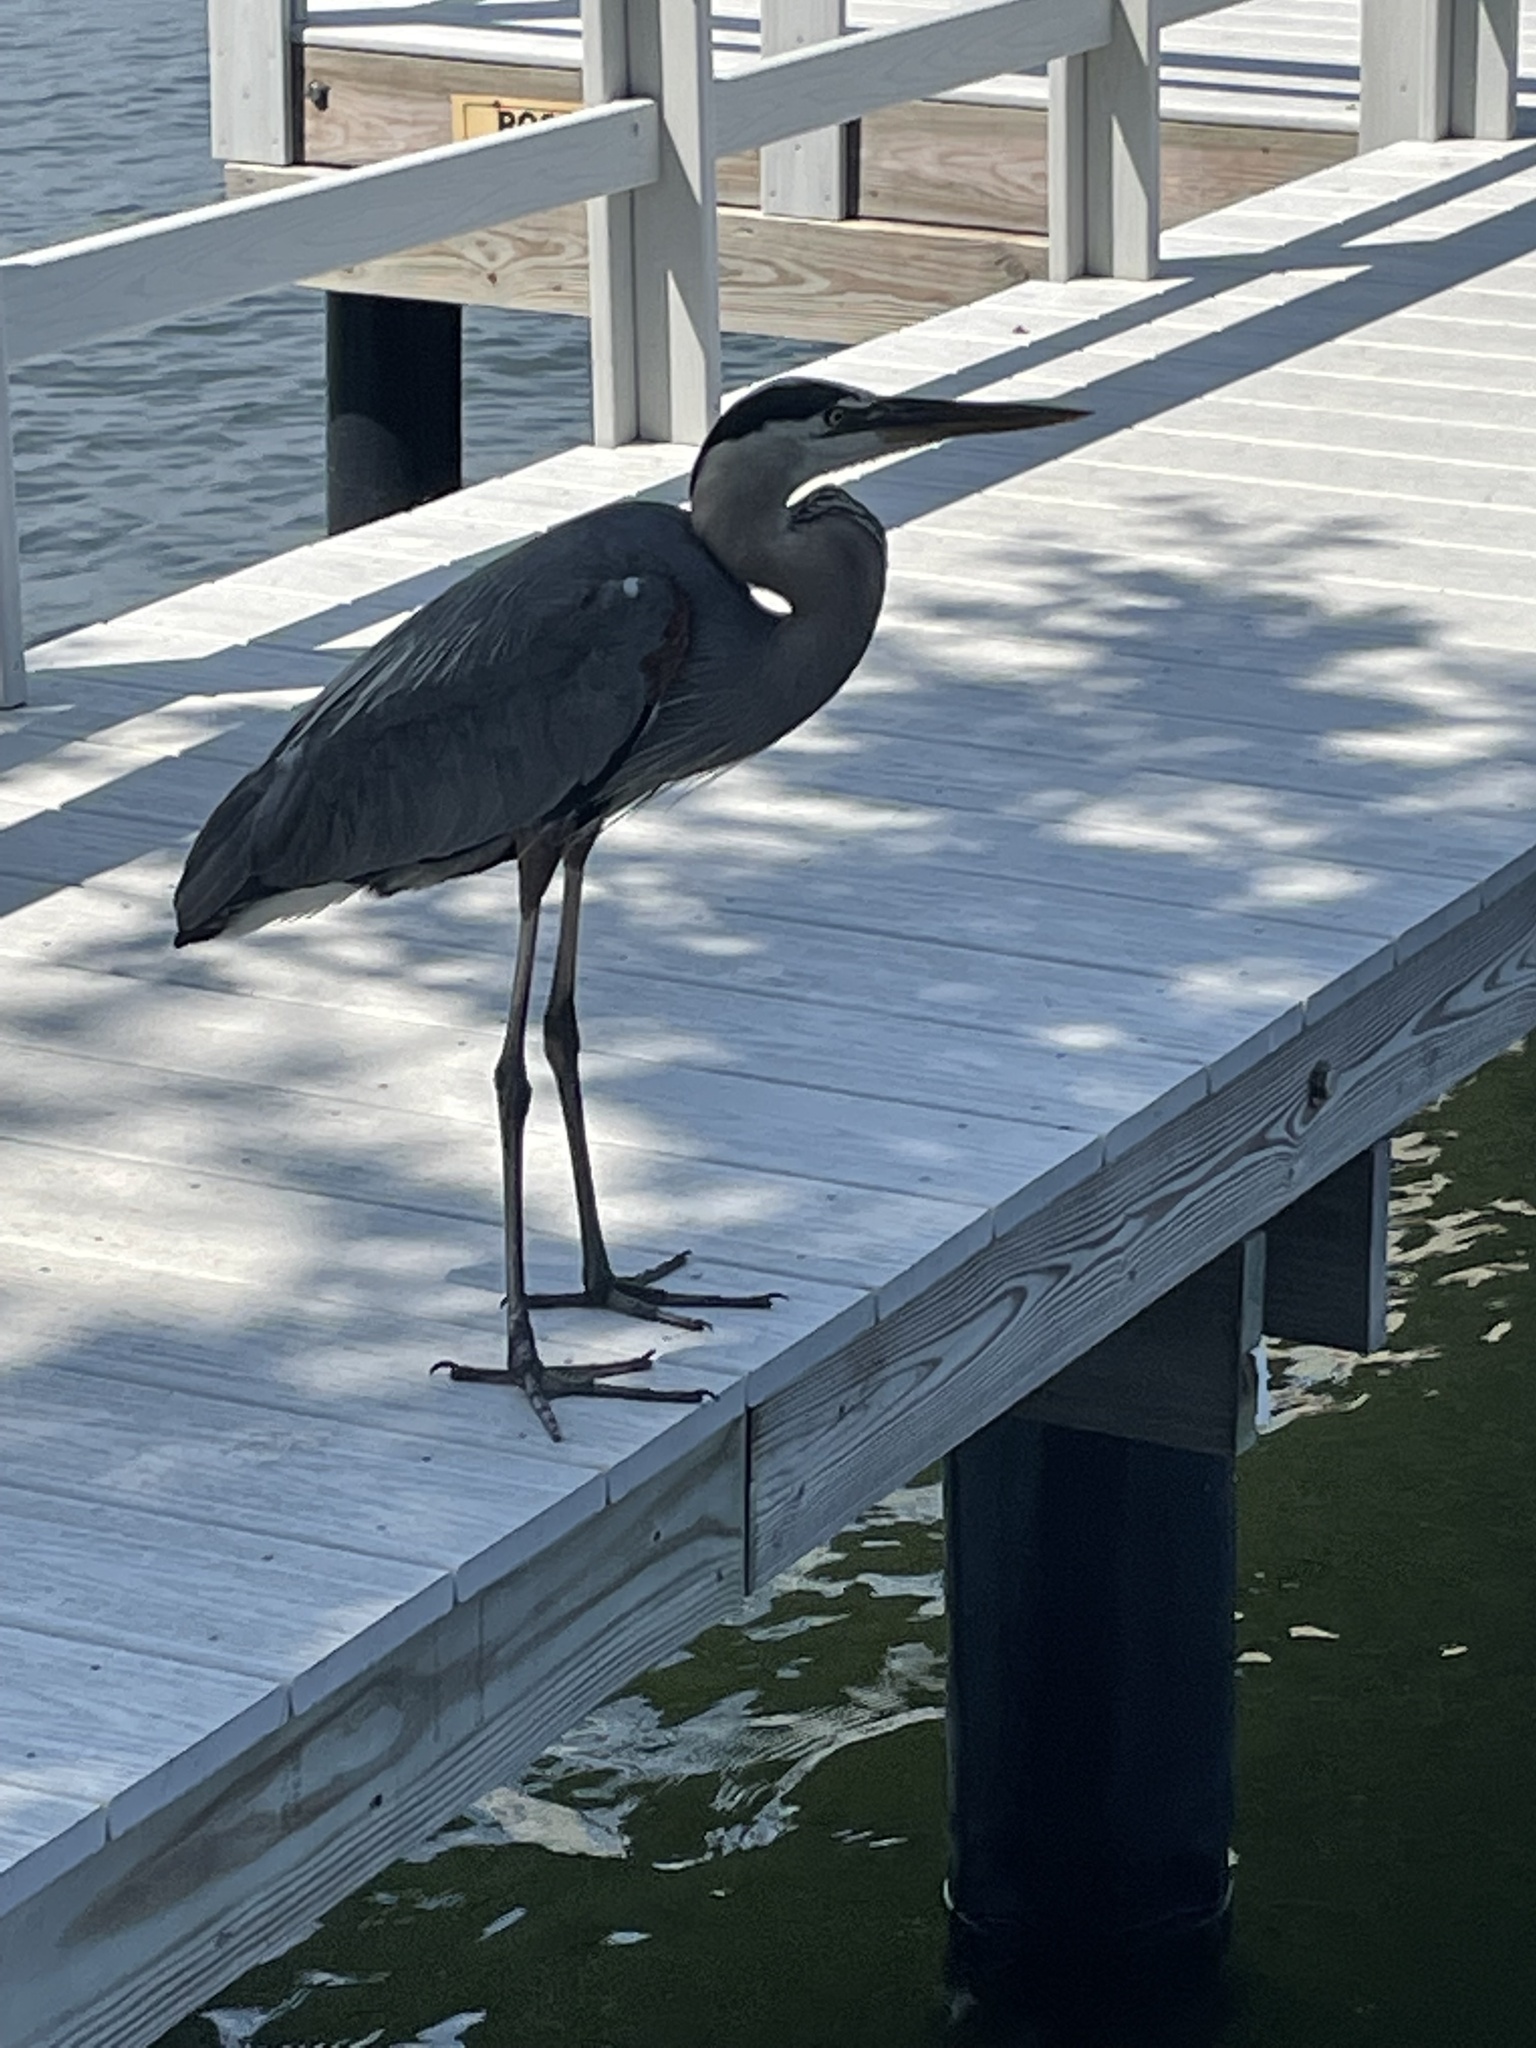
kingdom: Animalia
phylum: Chordata
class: Aves
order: Pelecaniformes
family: Ardeidae
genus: Ardea
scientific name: Ardea herodias
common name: Great blue heron
